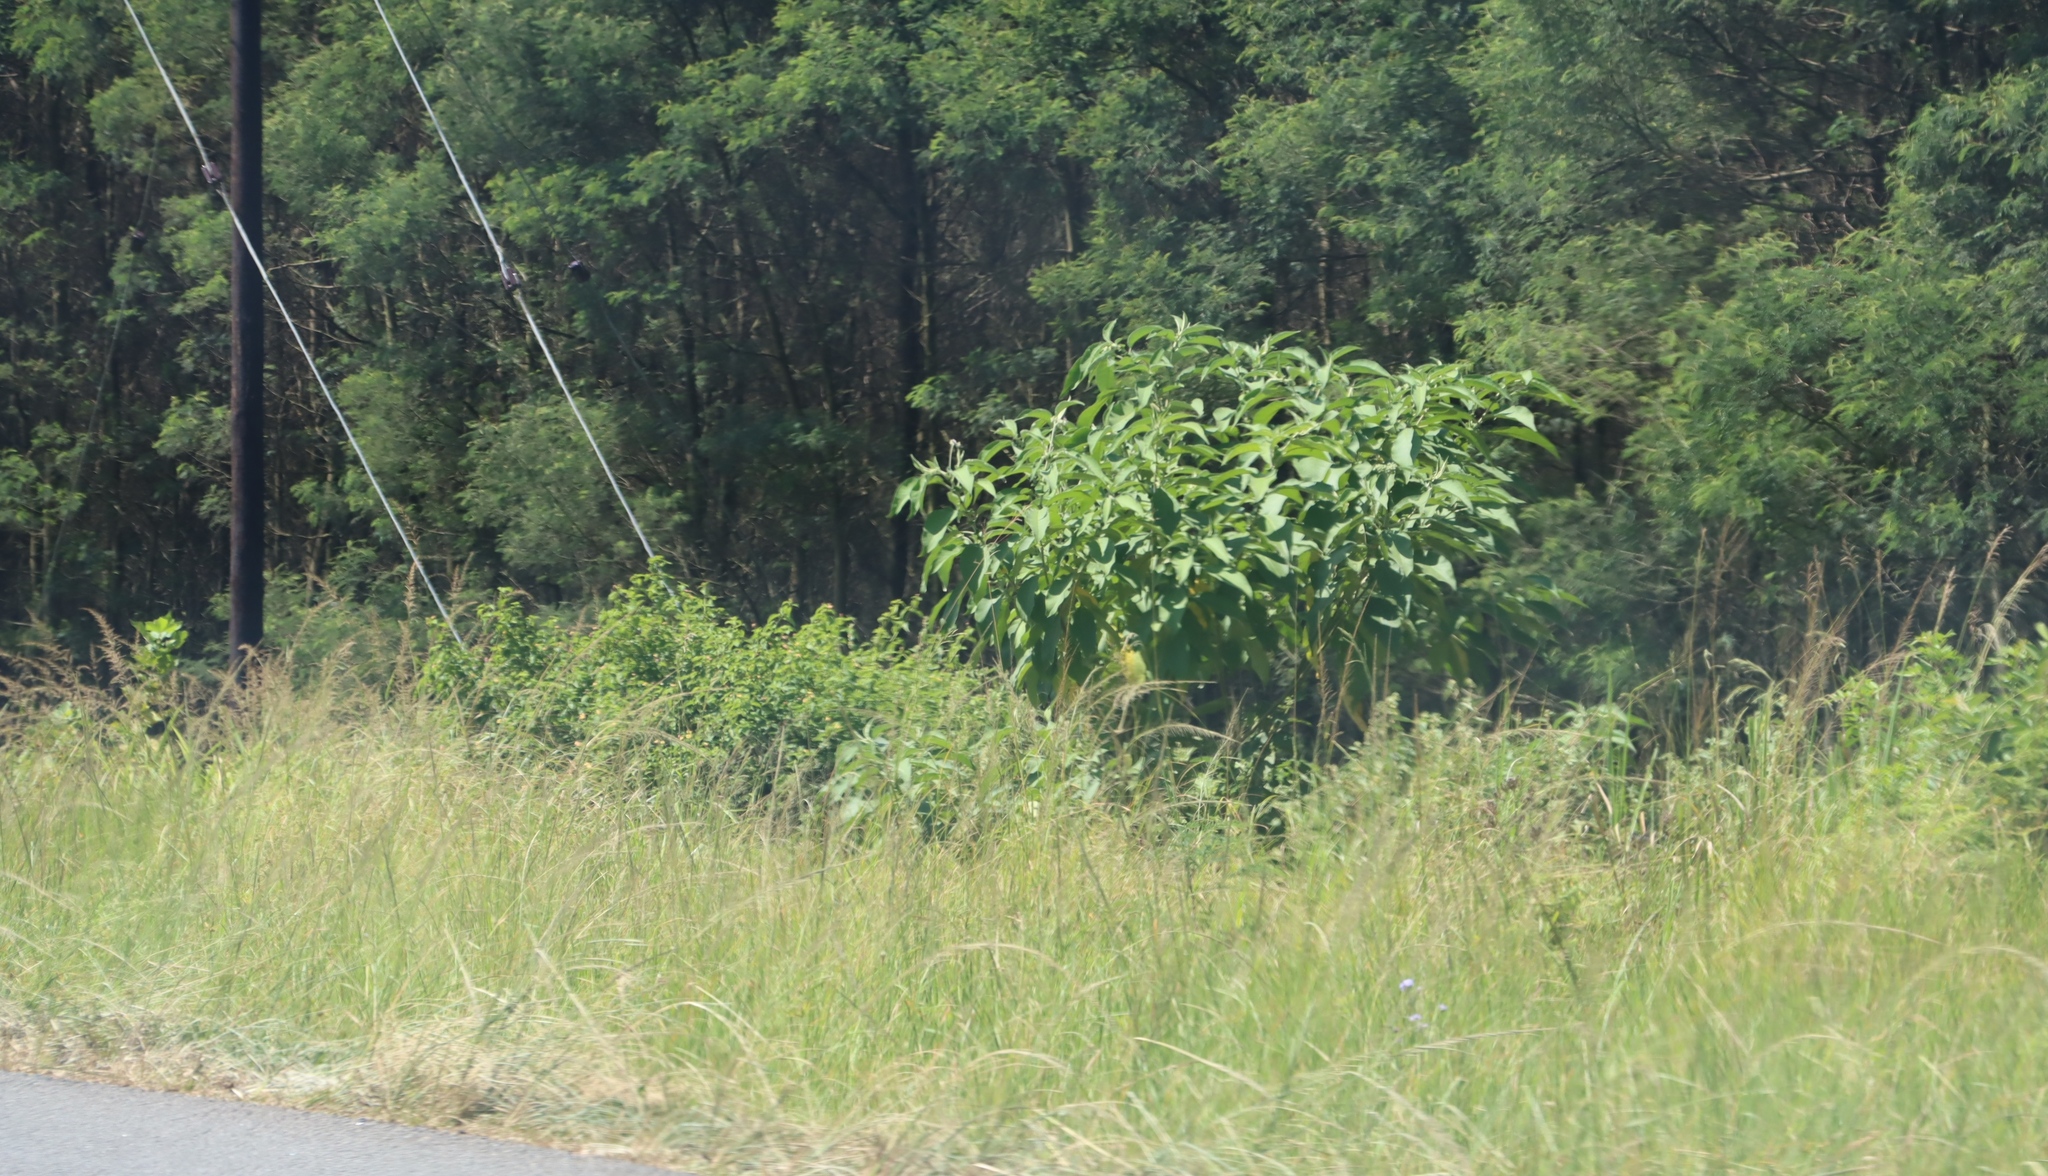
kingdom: Plantae
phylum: Tracheophyta
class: Magnoliopsida
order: Solanales
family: Solanaceae
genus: Solanum
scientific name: Solanum mauritianum
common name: Earleaf nightshade
